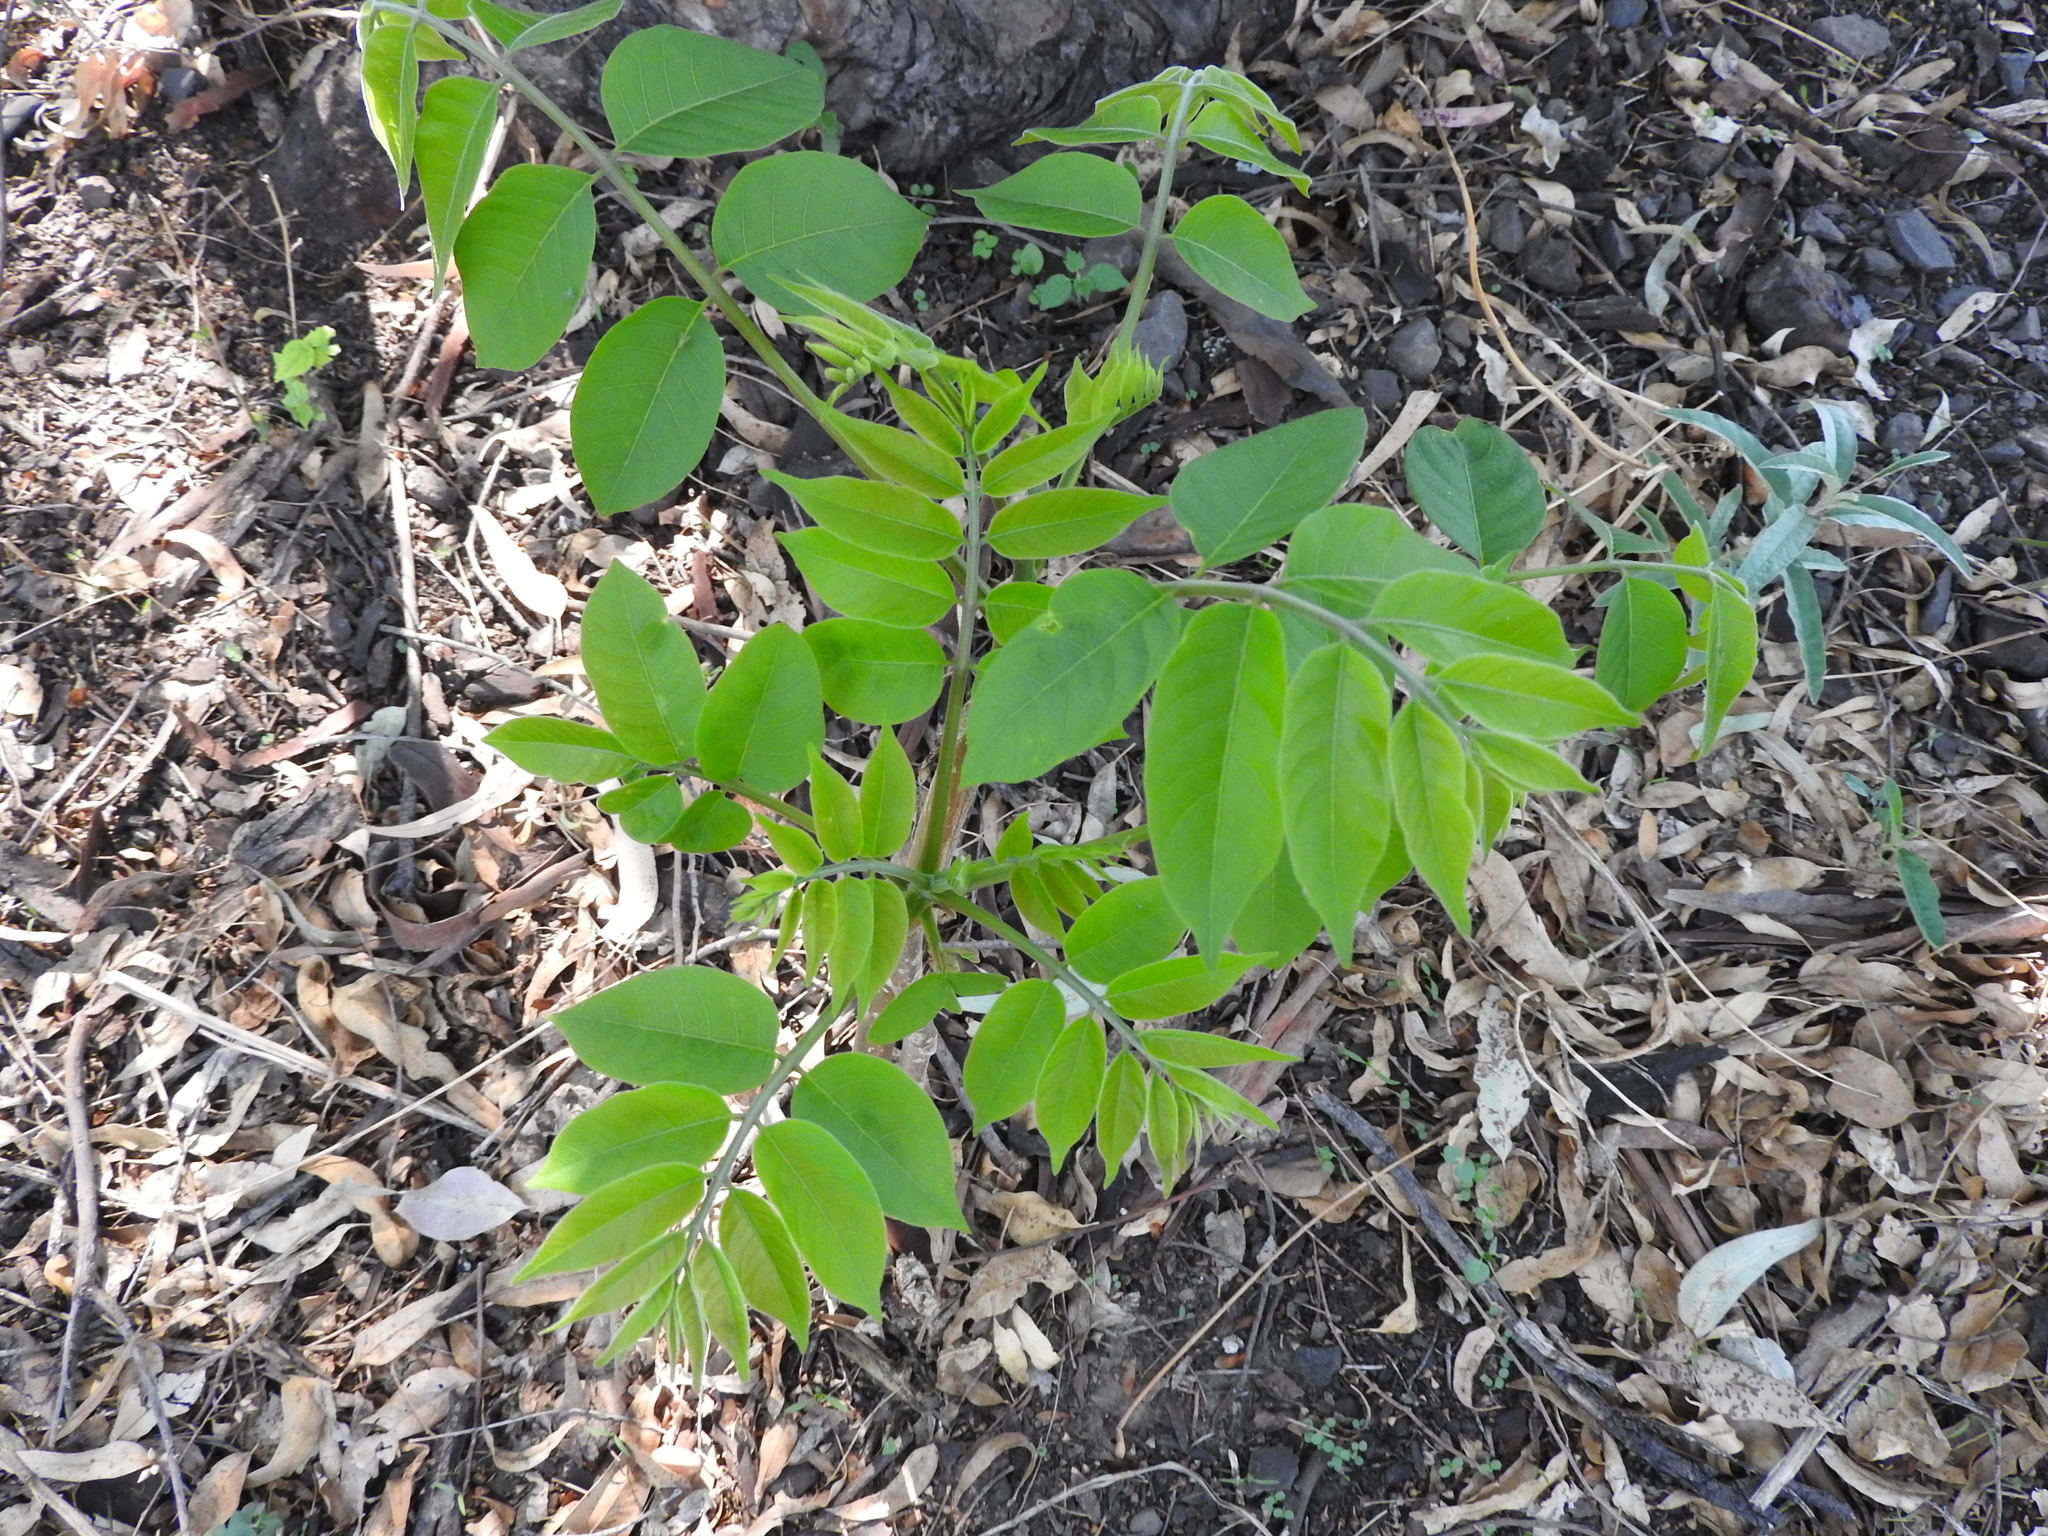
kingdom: Plantae
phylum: Tracheophyta
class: Magnoliopsida
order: Sapindales
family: Meliaceae
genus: Cedrela
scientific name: Cedrela odorata
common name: Red cedar
